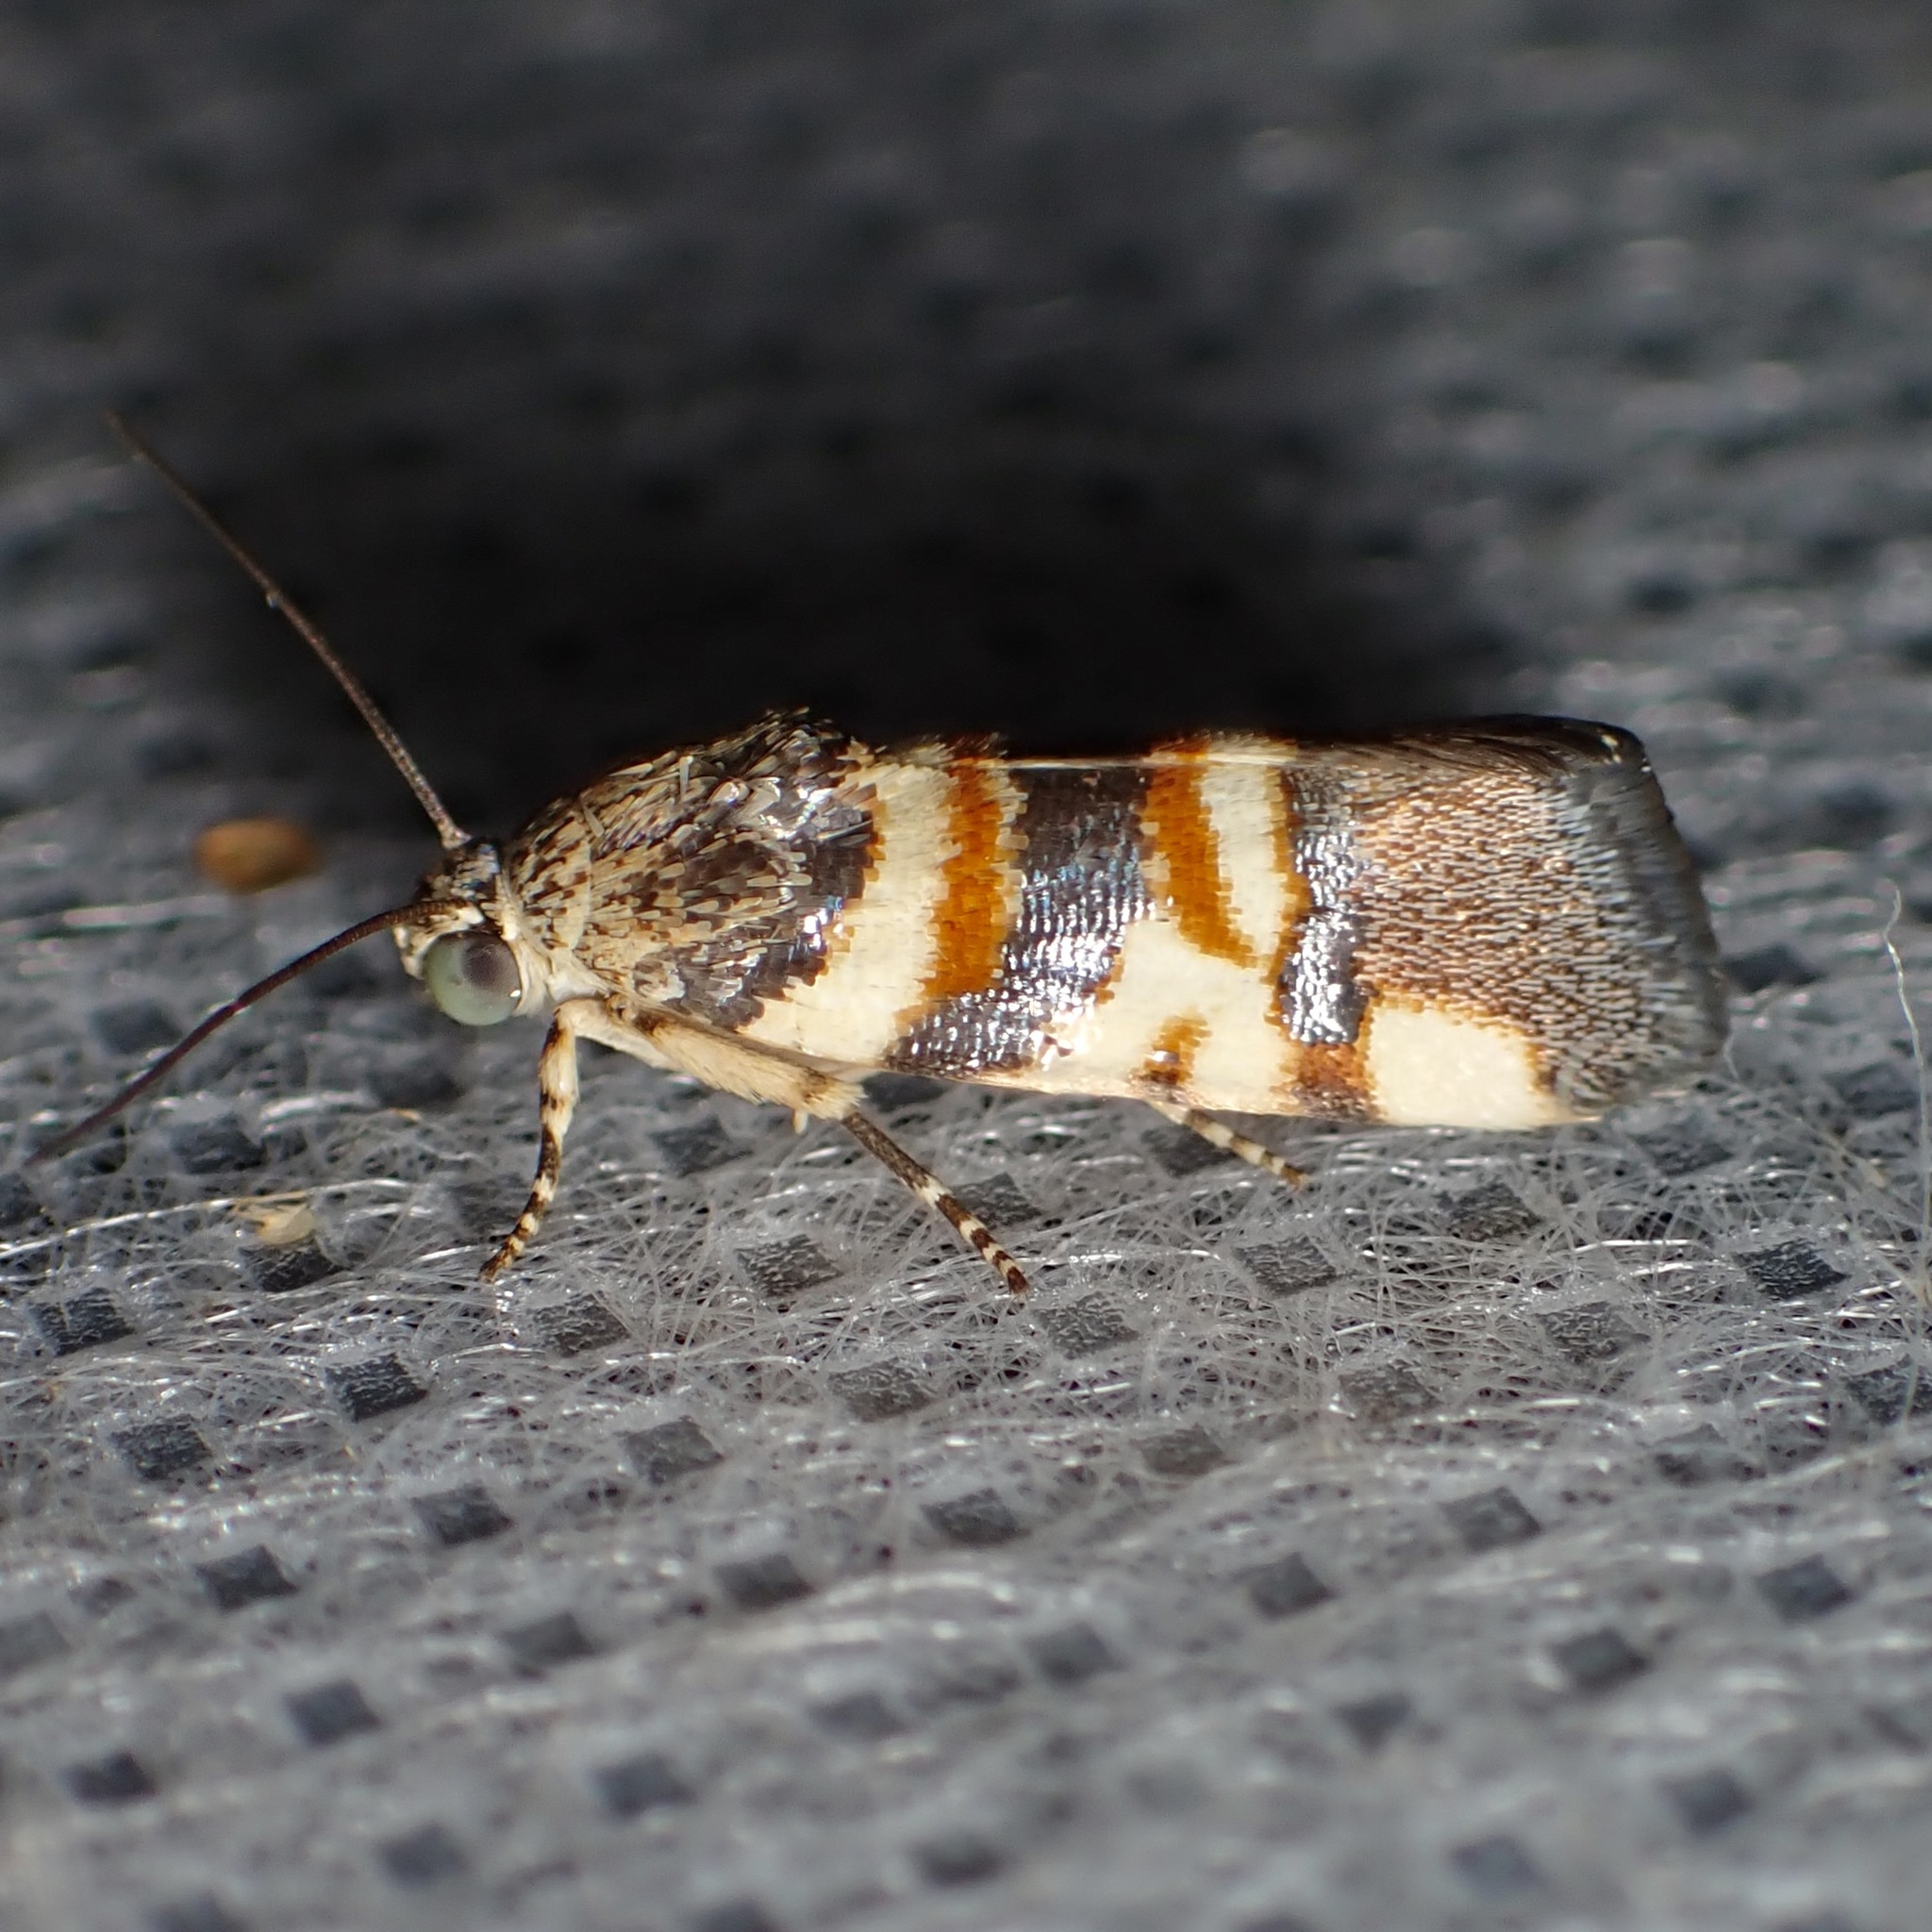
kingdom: Animalia
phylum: Arthropoda
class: Insecta
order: Lepidoptera
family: Noctuidae
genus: Spragueia
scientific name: Spragueia funeralis
